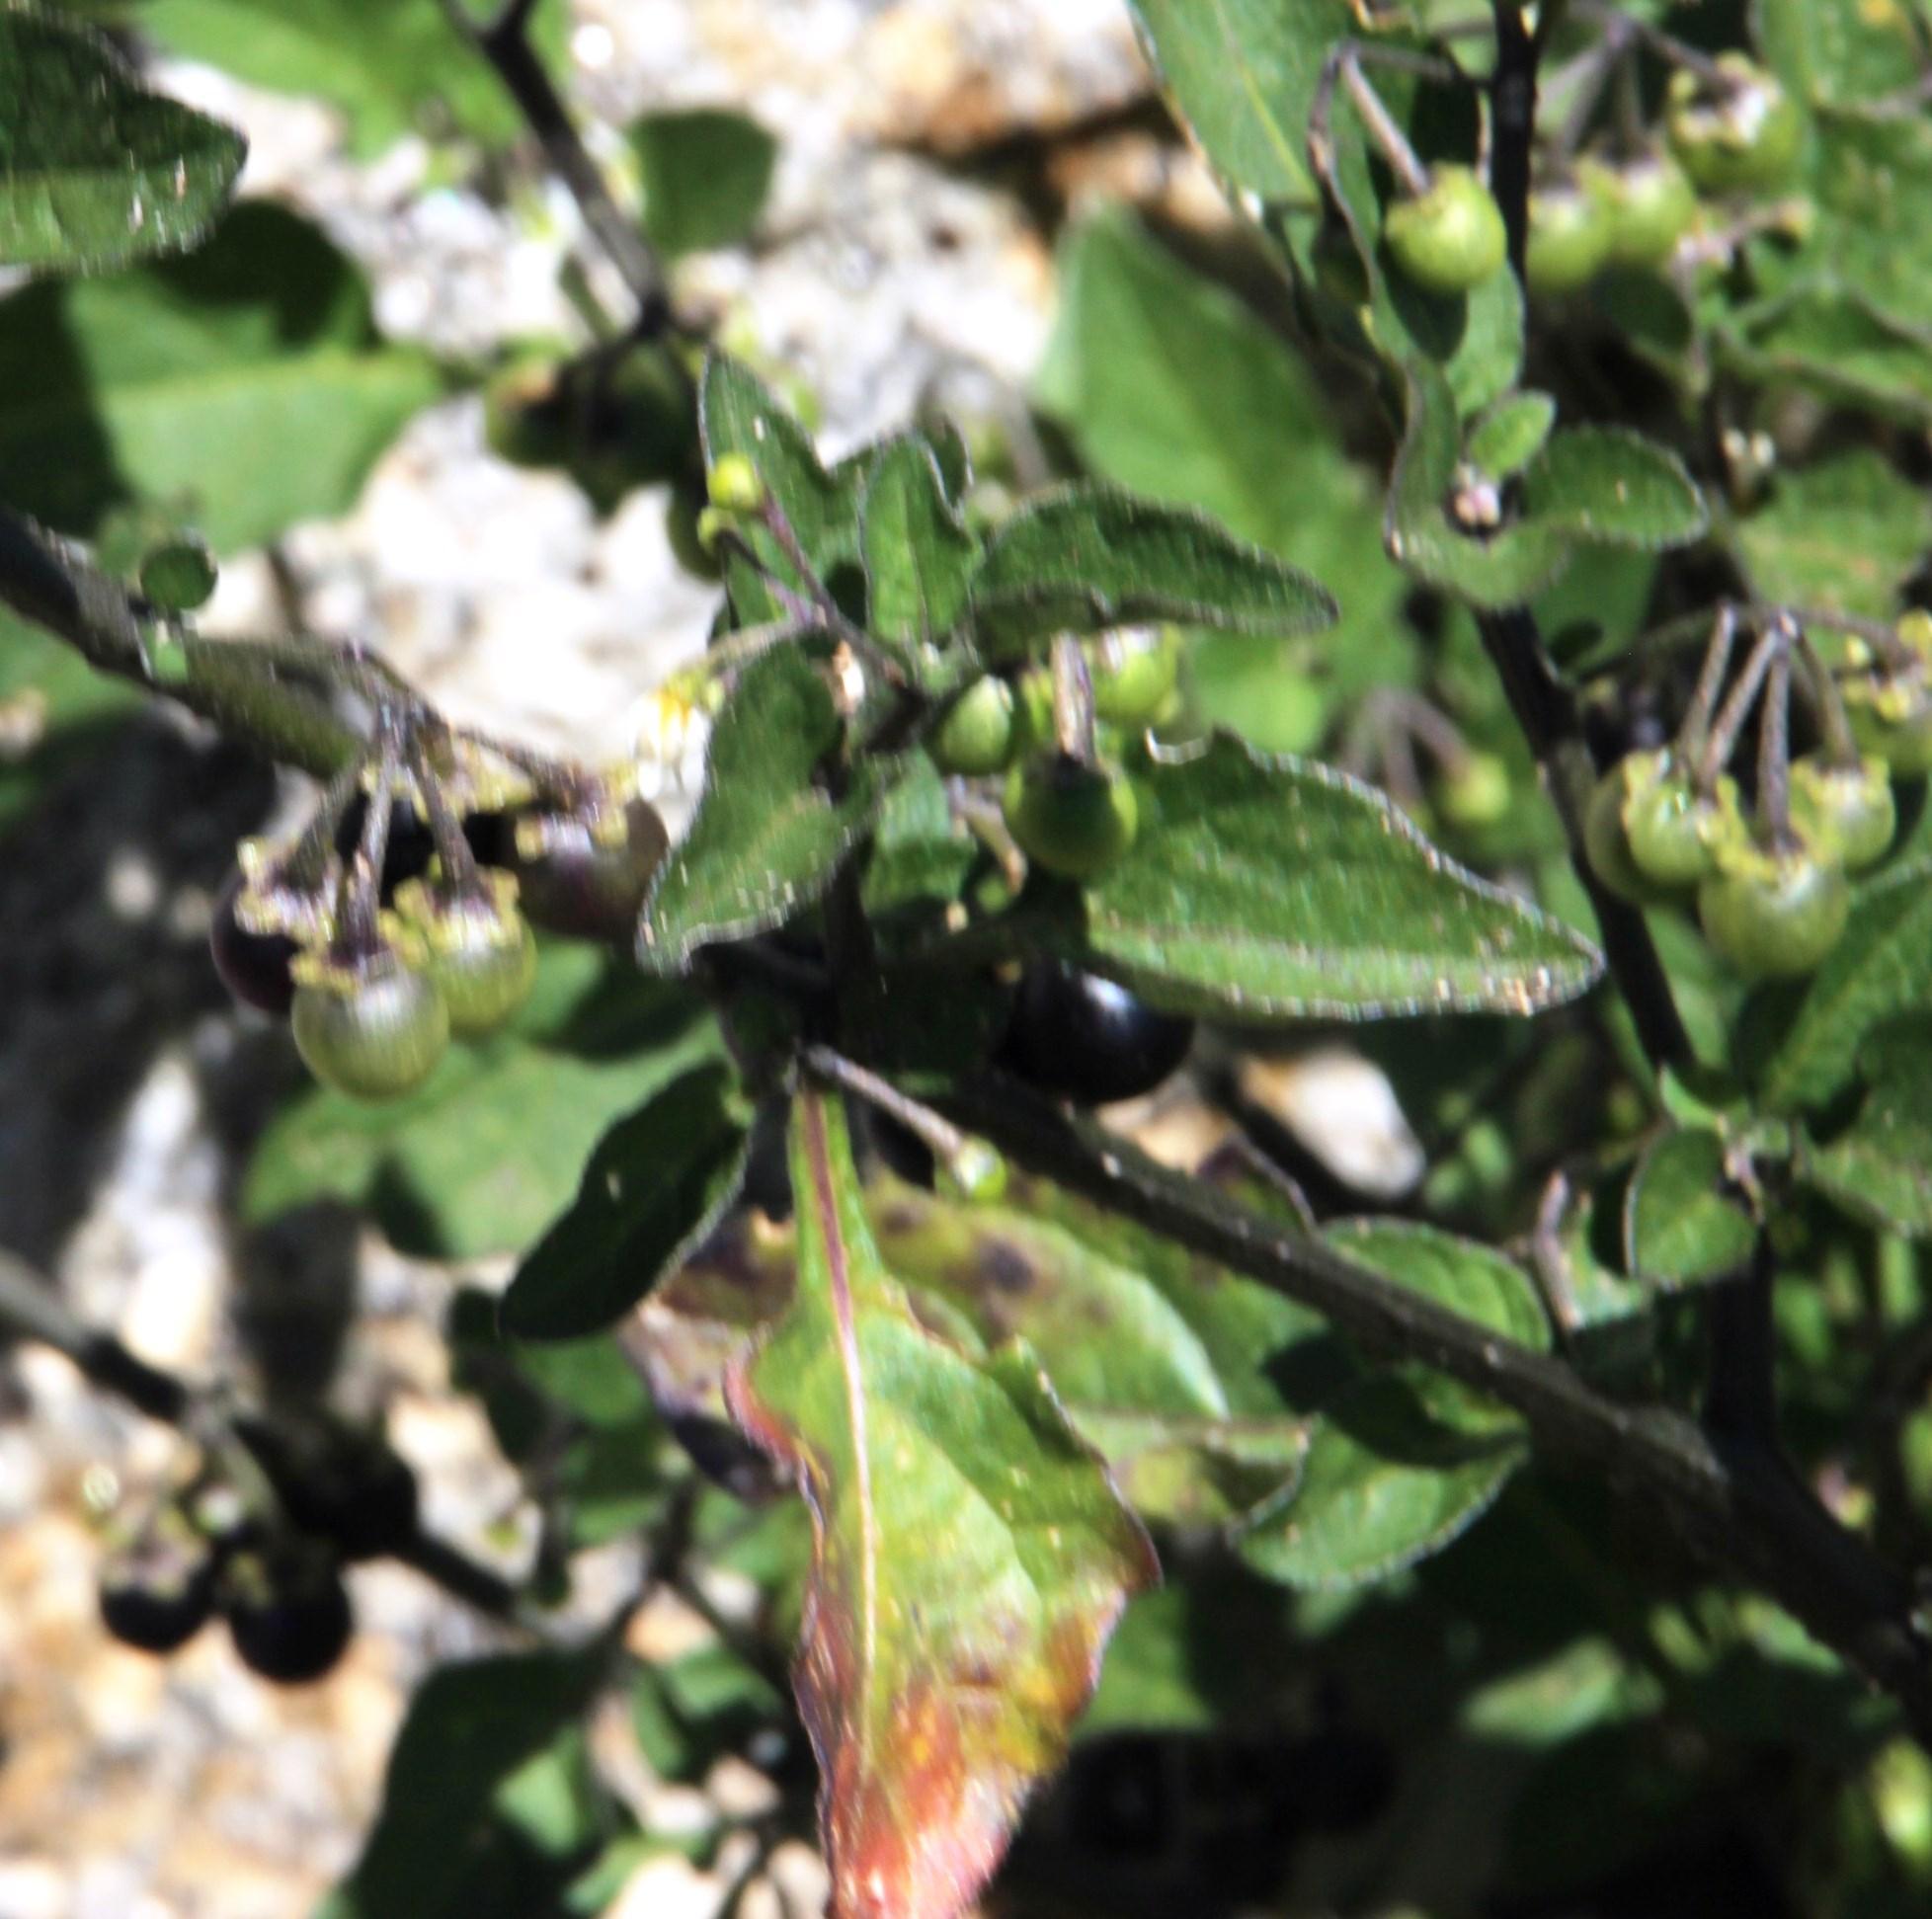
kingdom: Plantae
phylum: Tracheophyta
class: Magnoliopsida
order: Solanales
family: Solanaceae
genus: Solanum
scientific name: Solanum nigrum
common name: Black nightshade
